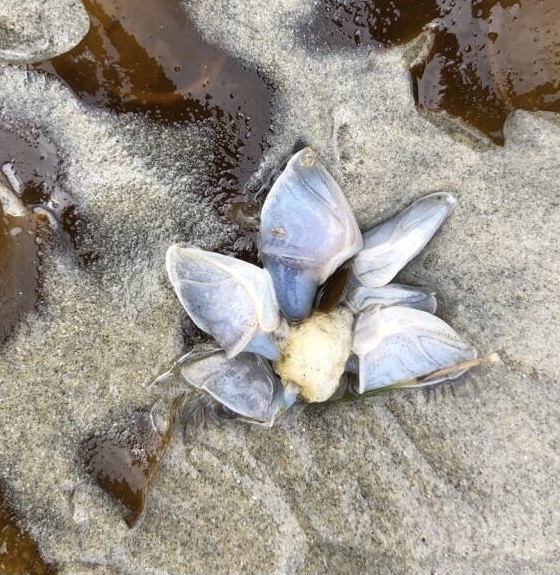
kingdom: Animalia
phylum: Arthropoda
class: Maxillopoda
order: Pedunculata
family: Lepadidae
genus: Dosima
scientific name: Dosima fascicularis
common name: Buoy barnacle
